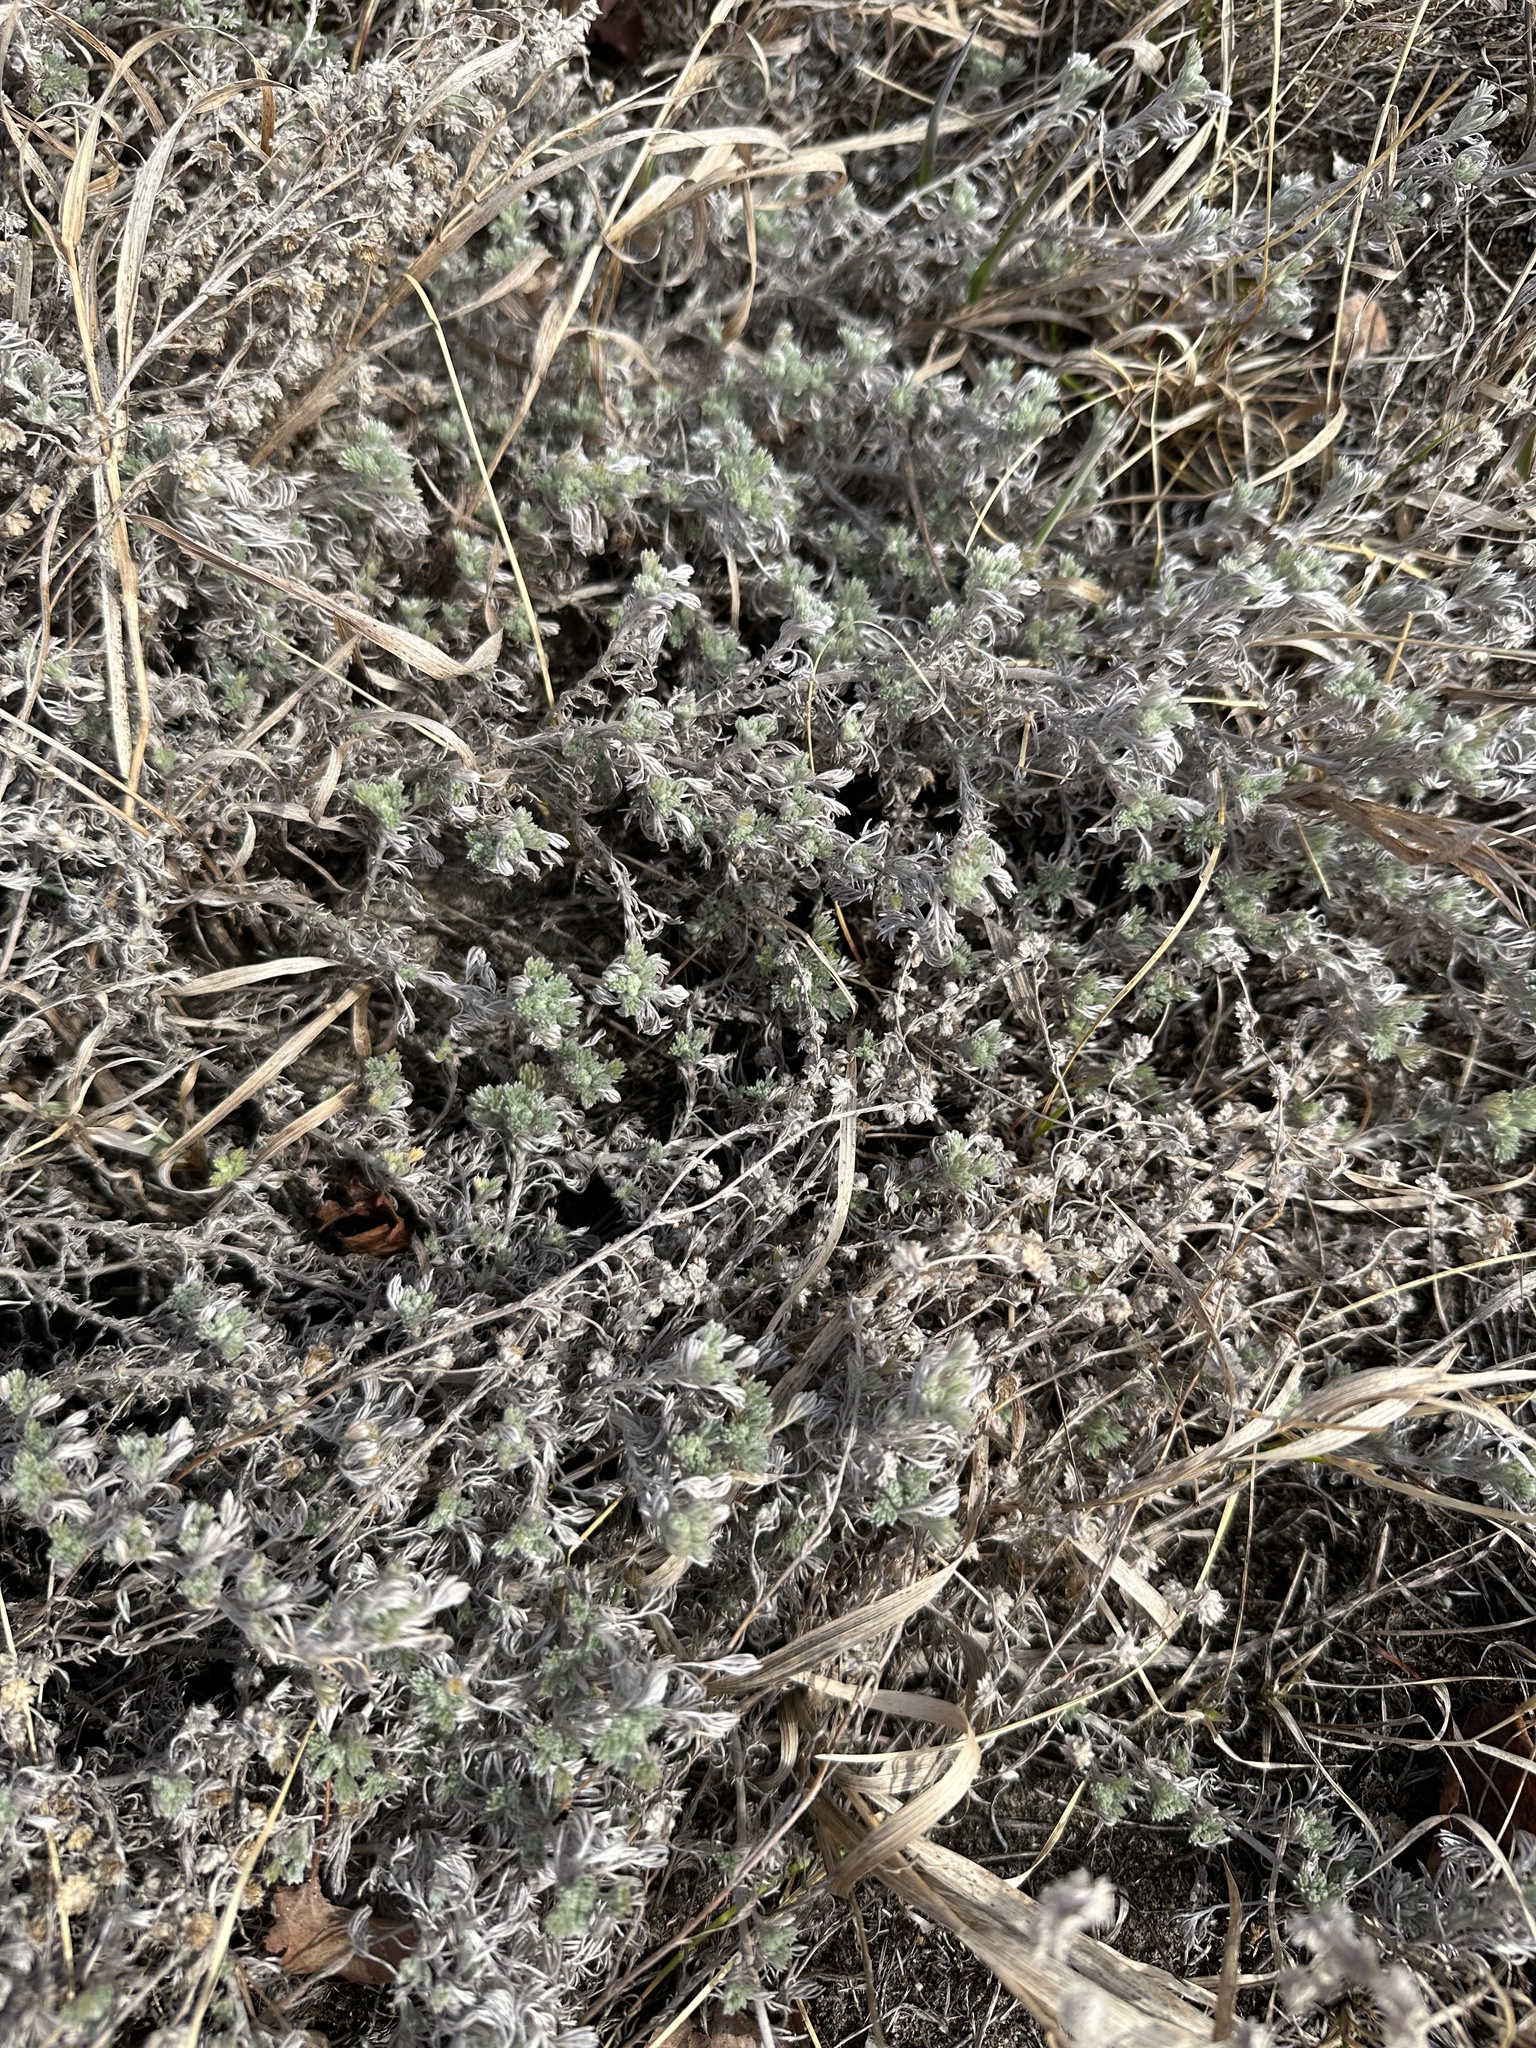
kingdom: Plantae
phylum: Tracheophyta
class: Magnoliopsida
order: Asterales
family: Asteraceae
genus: Artemisia
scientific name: Artemisia frigida
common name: Prairie sagewort
